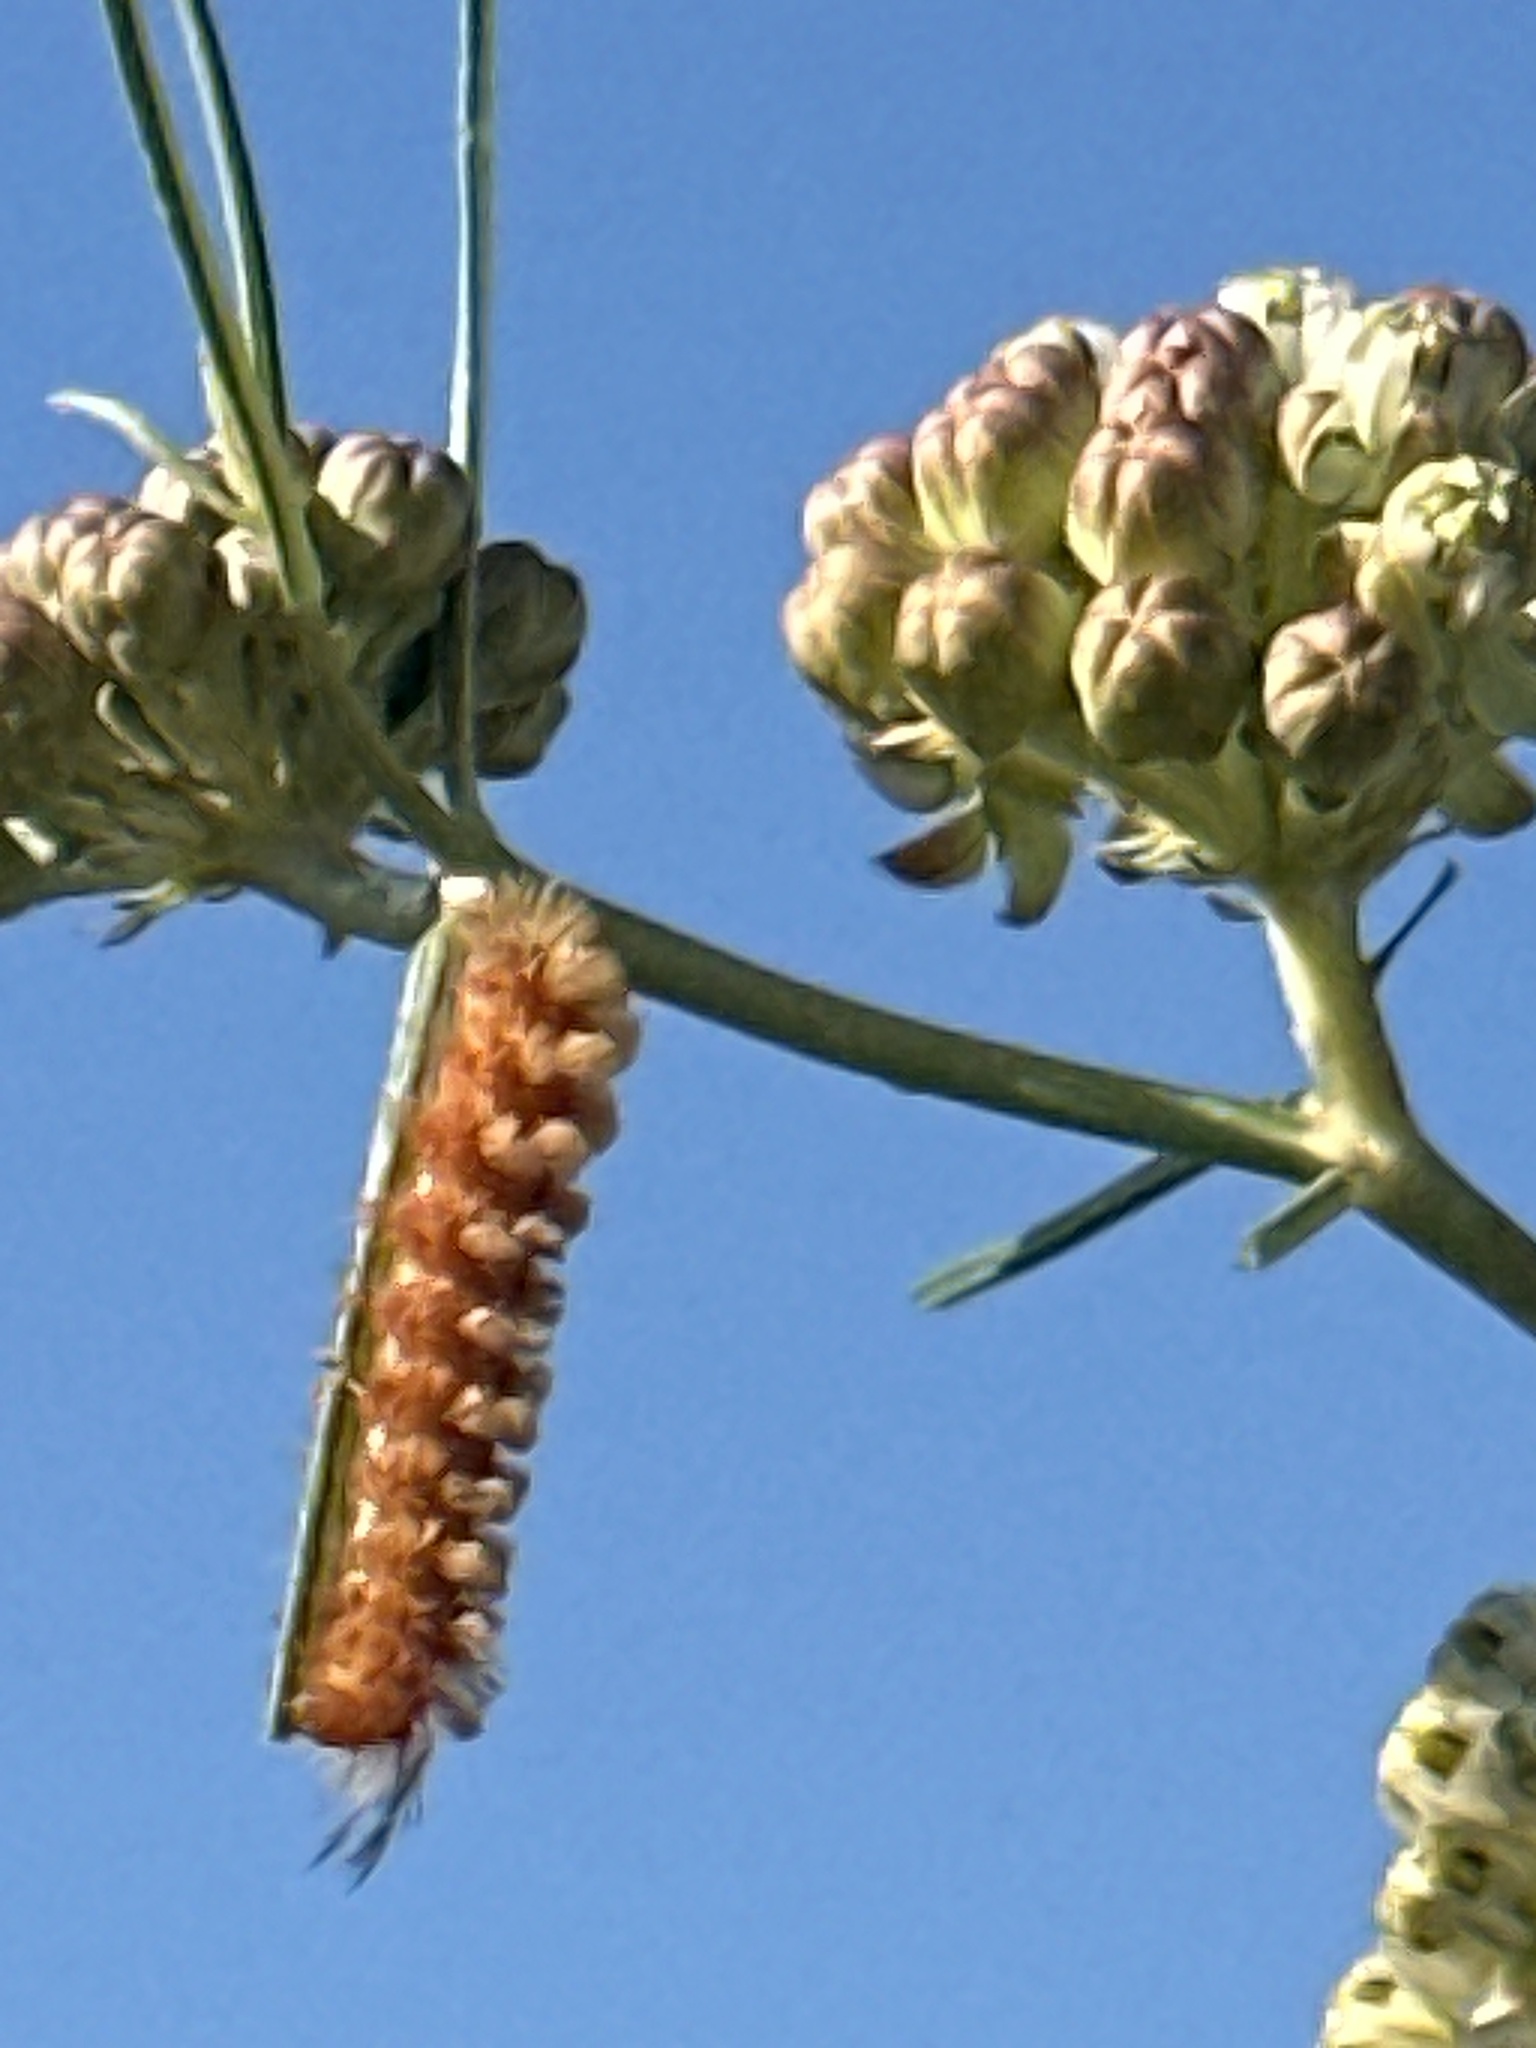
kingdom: Animalia
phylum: Arthropoda
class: Insecta
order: Lepidoptera
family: Erebidae
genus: Cycnia
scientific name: Cycnia collaris
